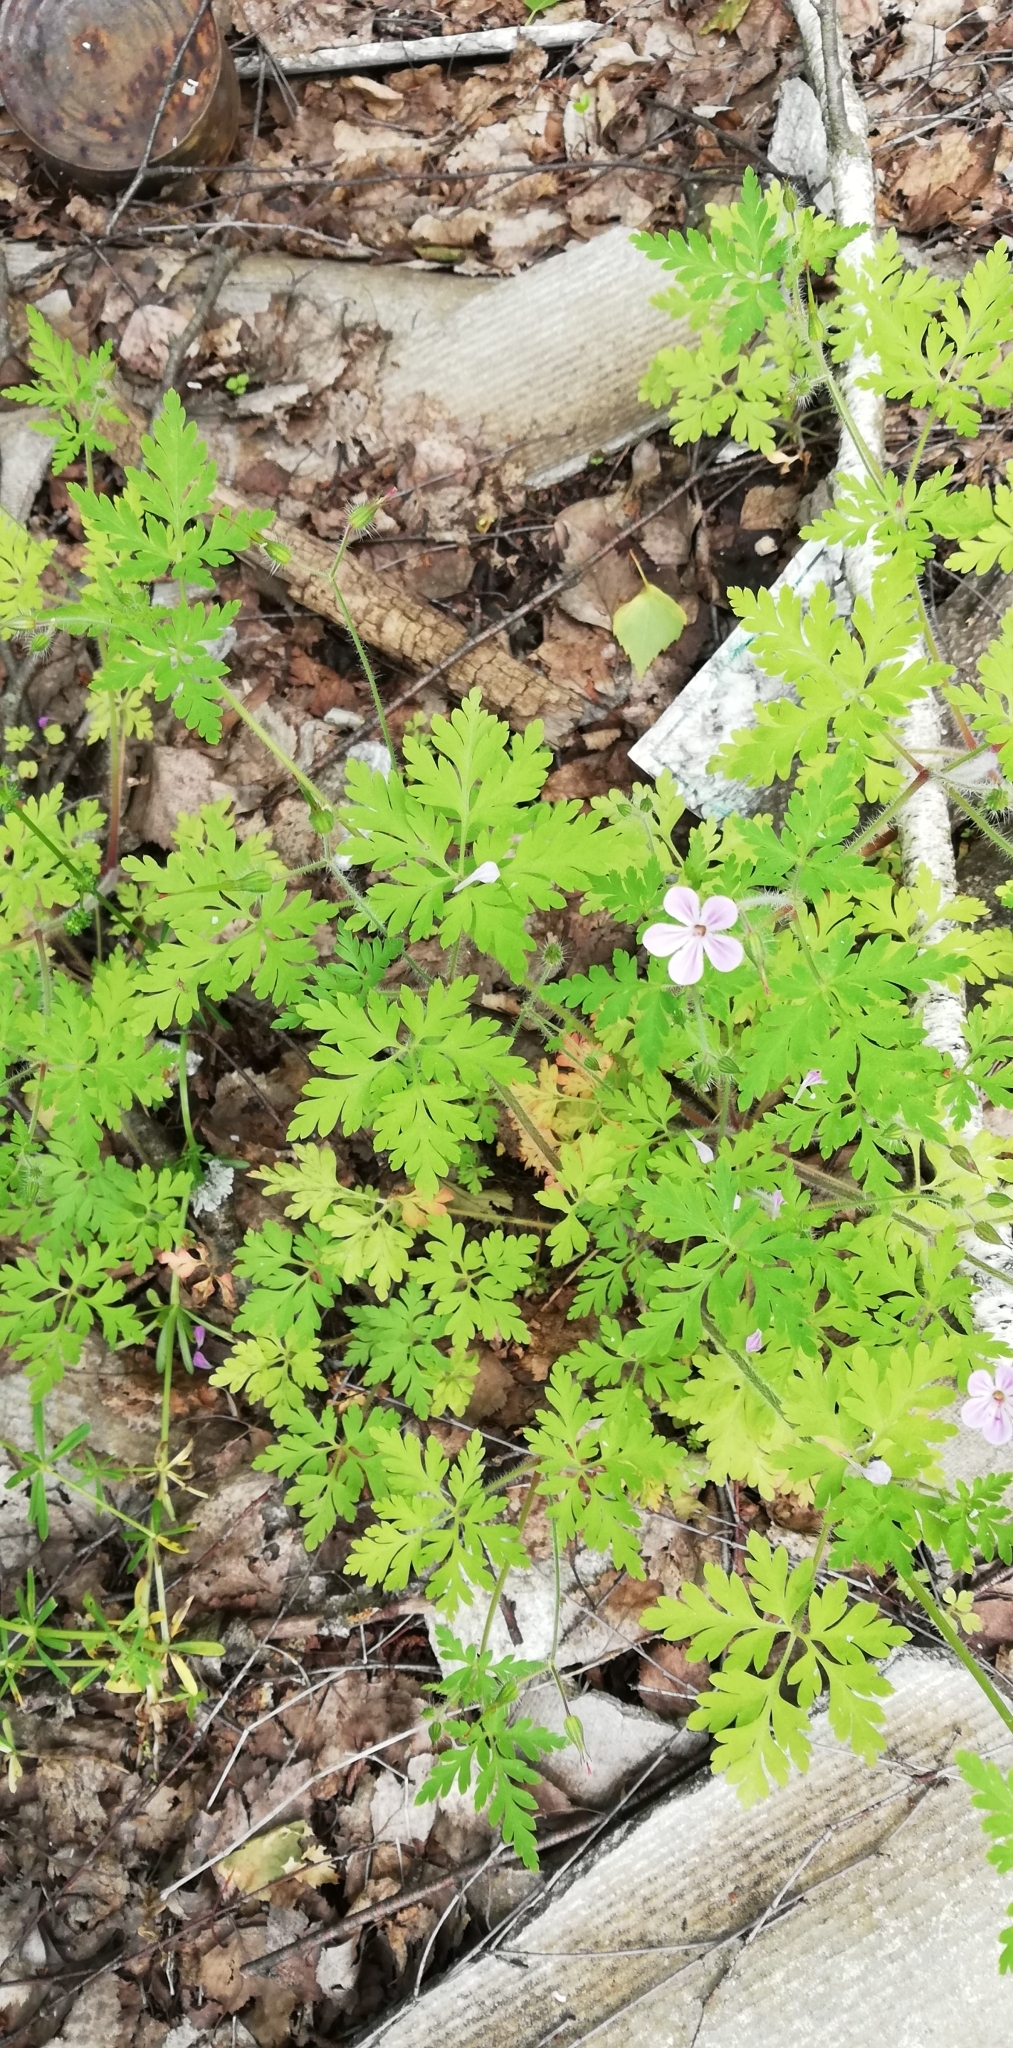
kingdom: Plantae
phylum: Tracheophyta
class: Magnoliopsida
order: Geraniales
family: Geraniaceae
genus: Geranium
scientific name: Geranium robertianum
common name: Herb-robert
